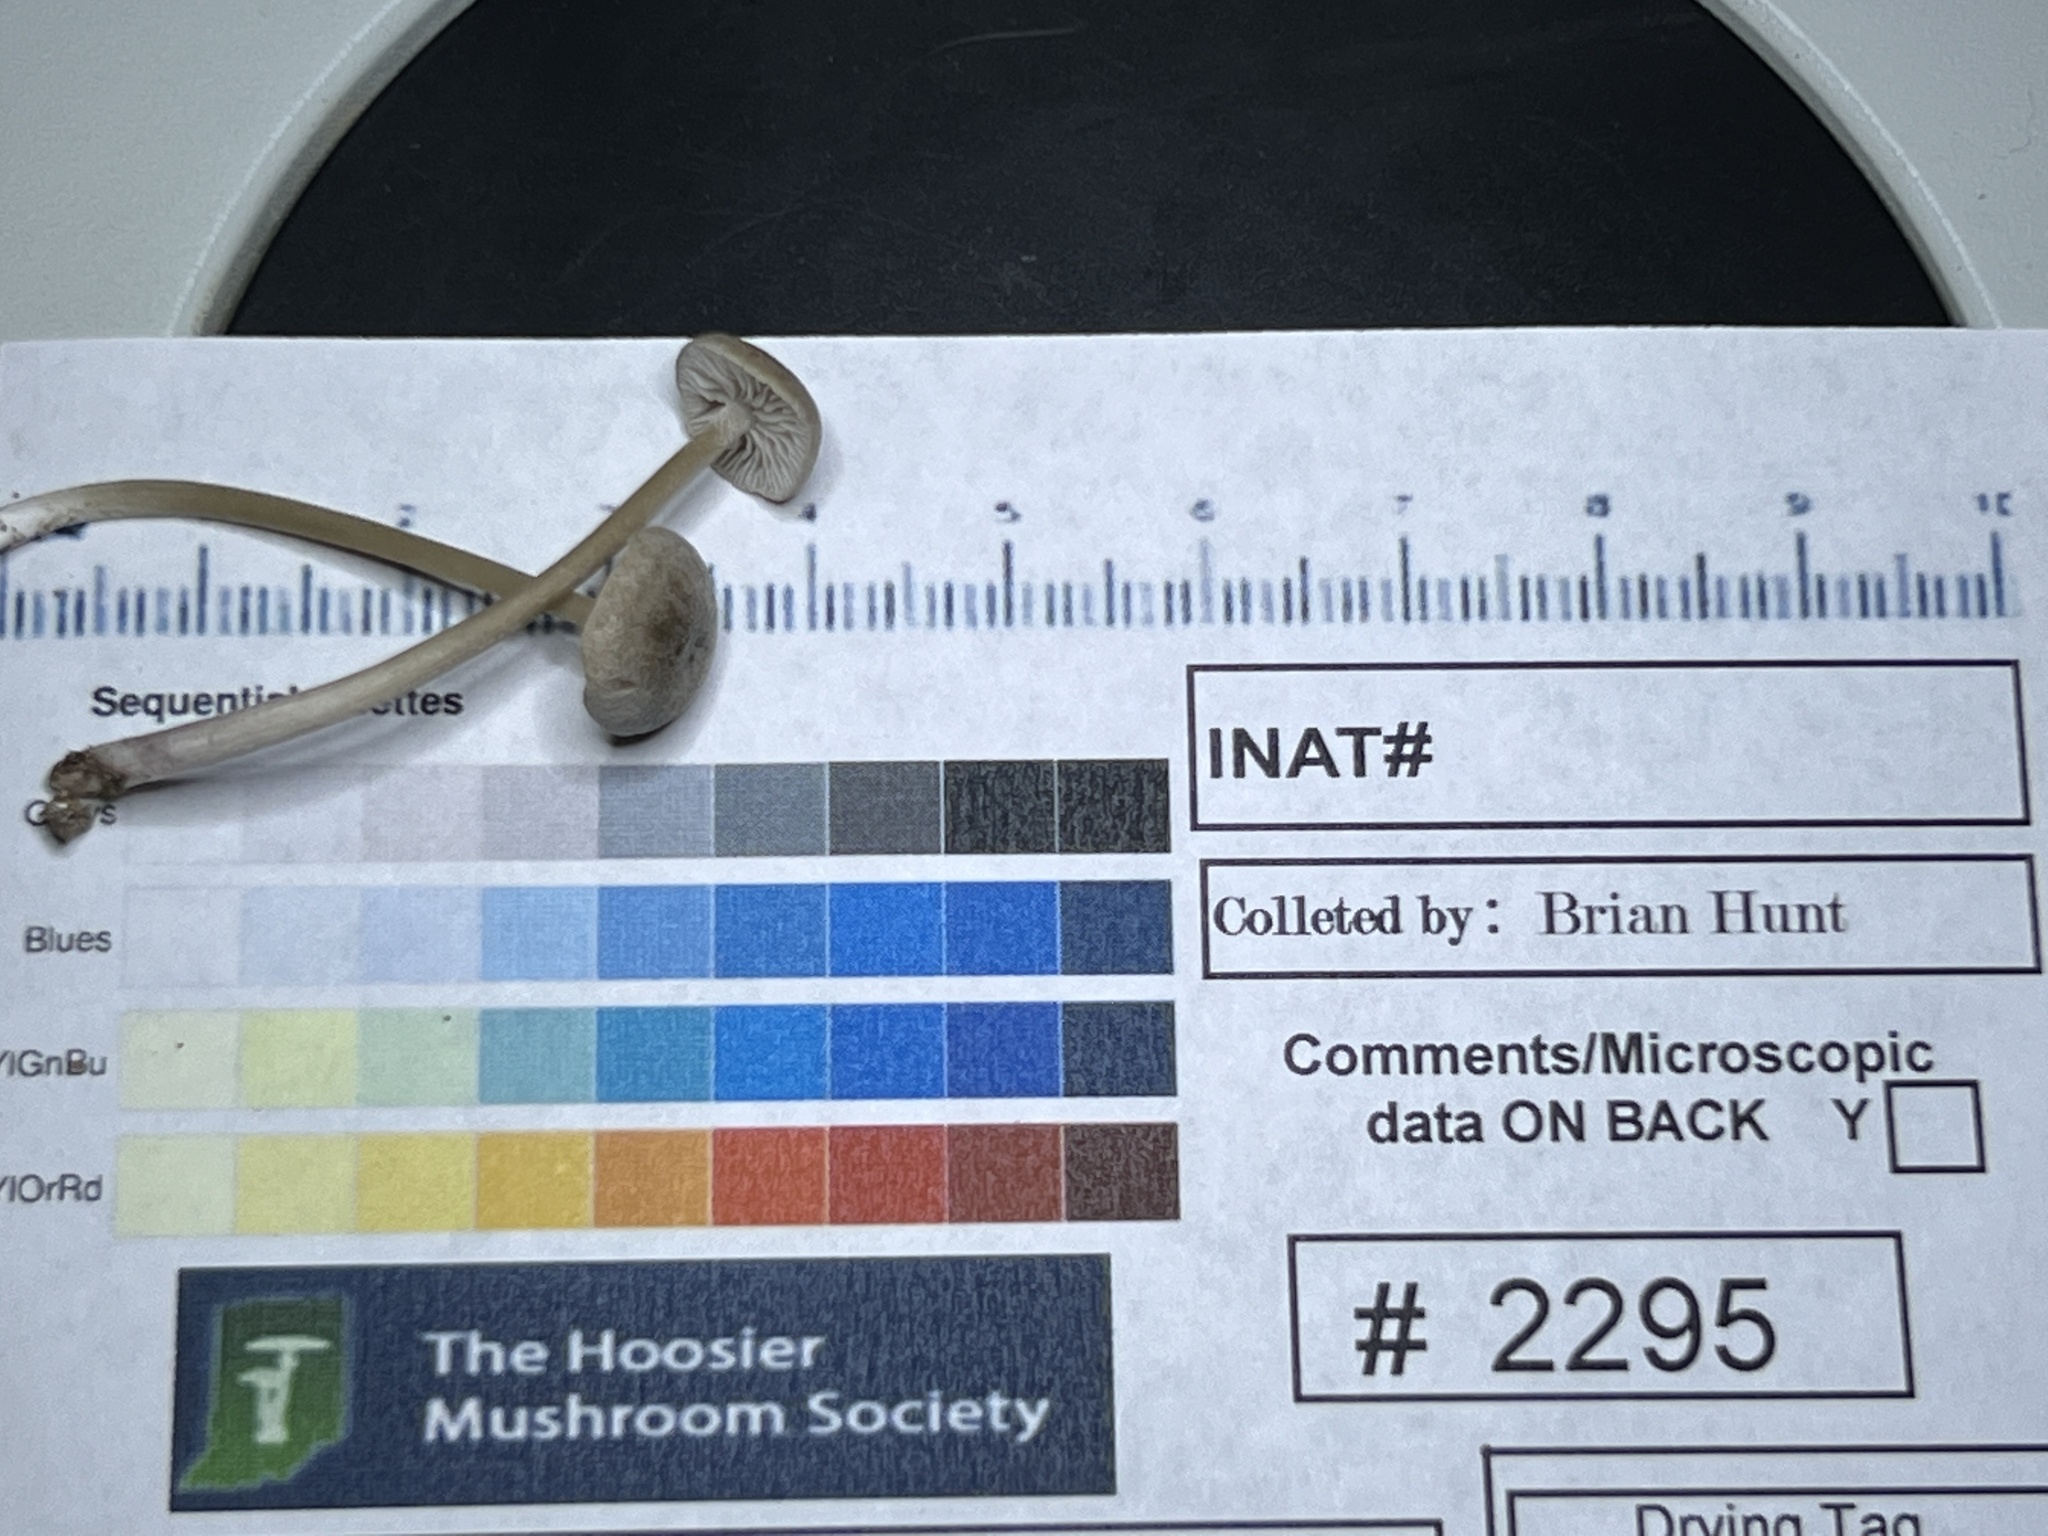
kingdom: Fungi
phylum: Basidiomycota
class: Agaricomycetes
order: Agaricales
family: Entolomataceae
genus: Entoloma
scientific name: Entoloma canescens
